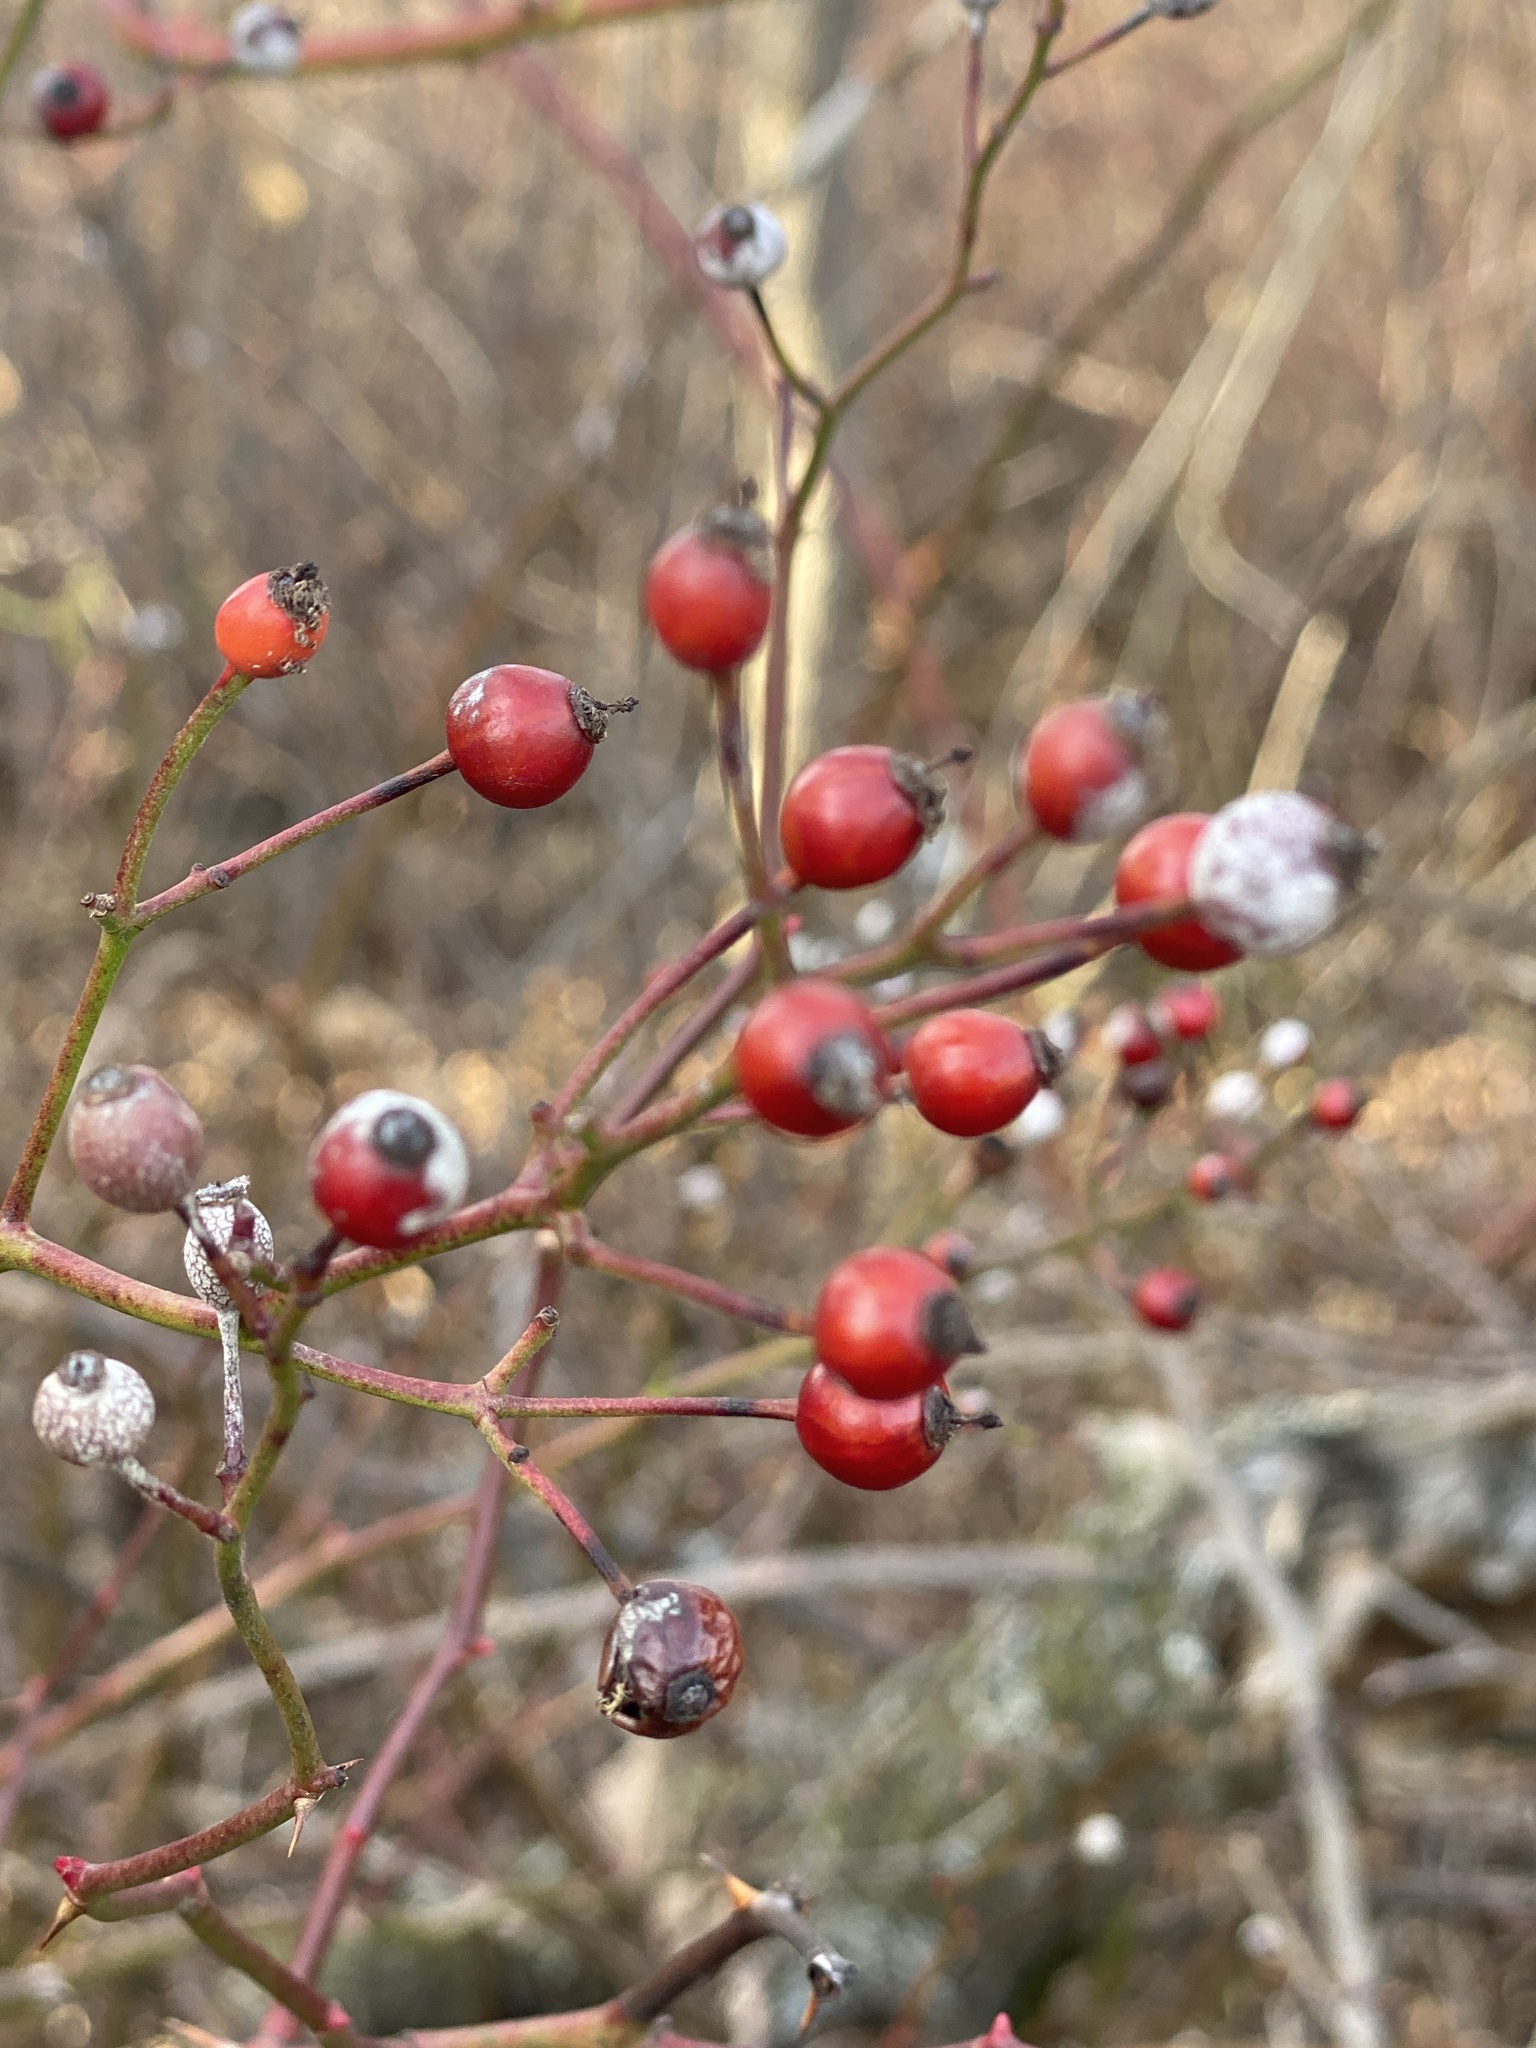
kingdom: Plantae
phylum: Tracheophyta
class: Magnoliopsida
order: Rosales
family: Rosaceae
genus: Rosa
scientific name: Rosa multiflora
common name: Multiflora rose
